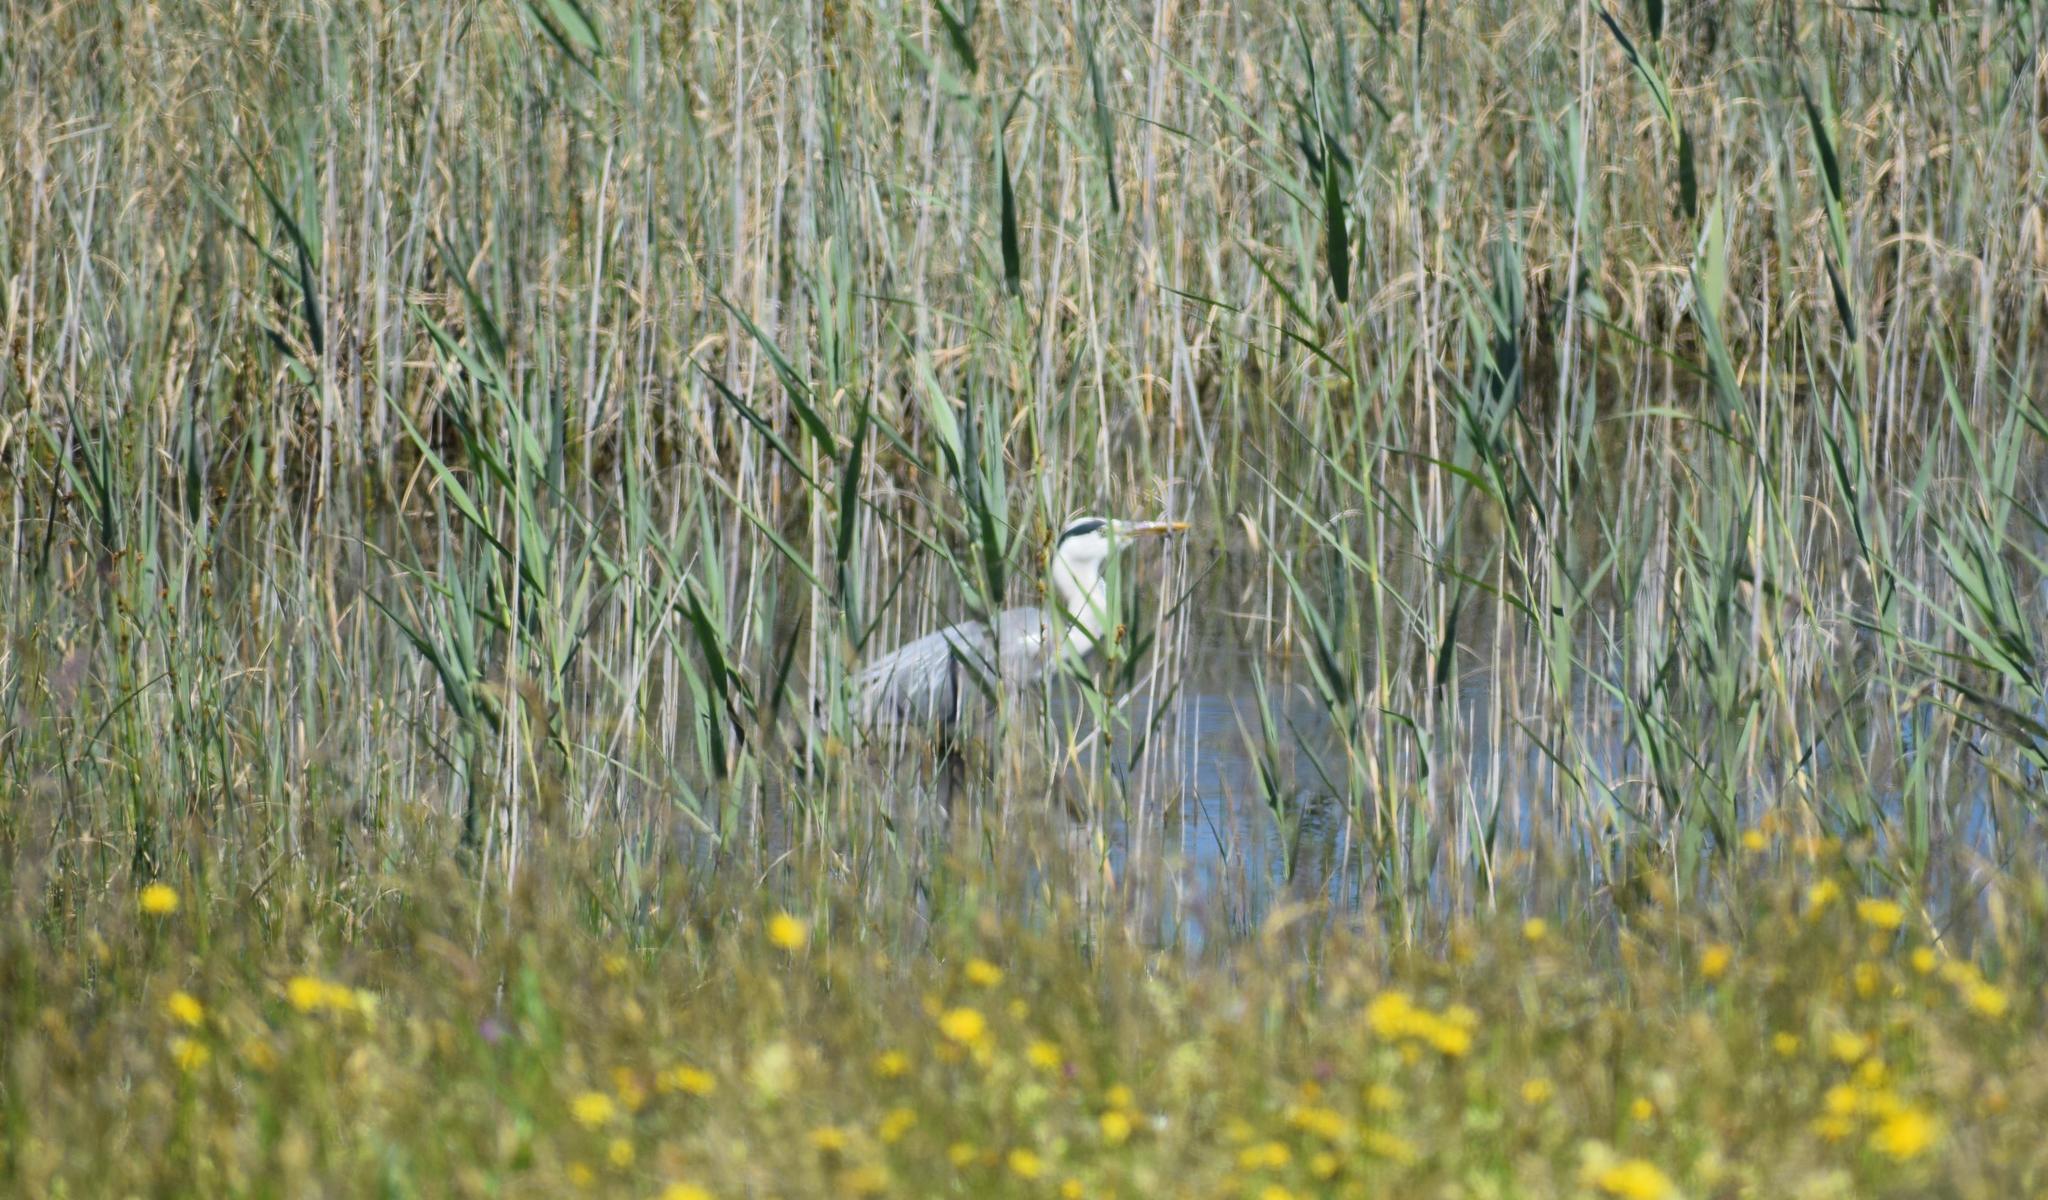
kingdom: Animalia
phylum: Chordata
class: Aves
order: Pelecaniformes
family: Ardeidae
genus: Ardea
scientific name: Ardea cinerea
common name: Grey heron
